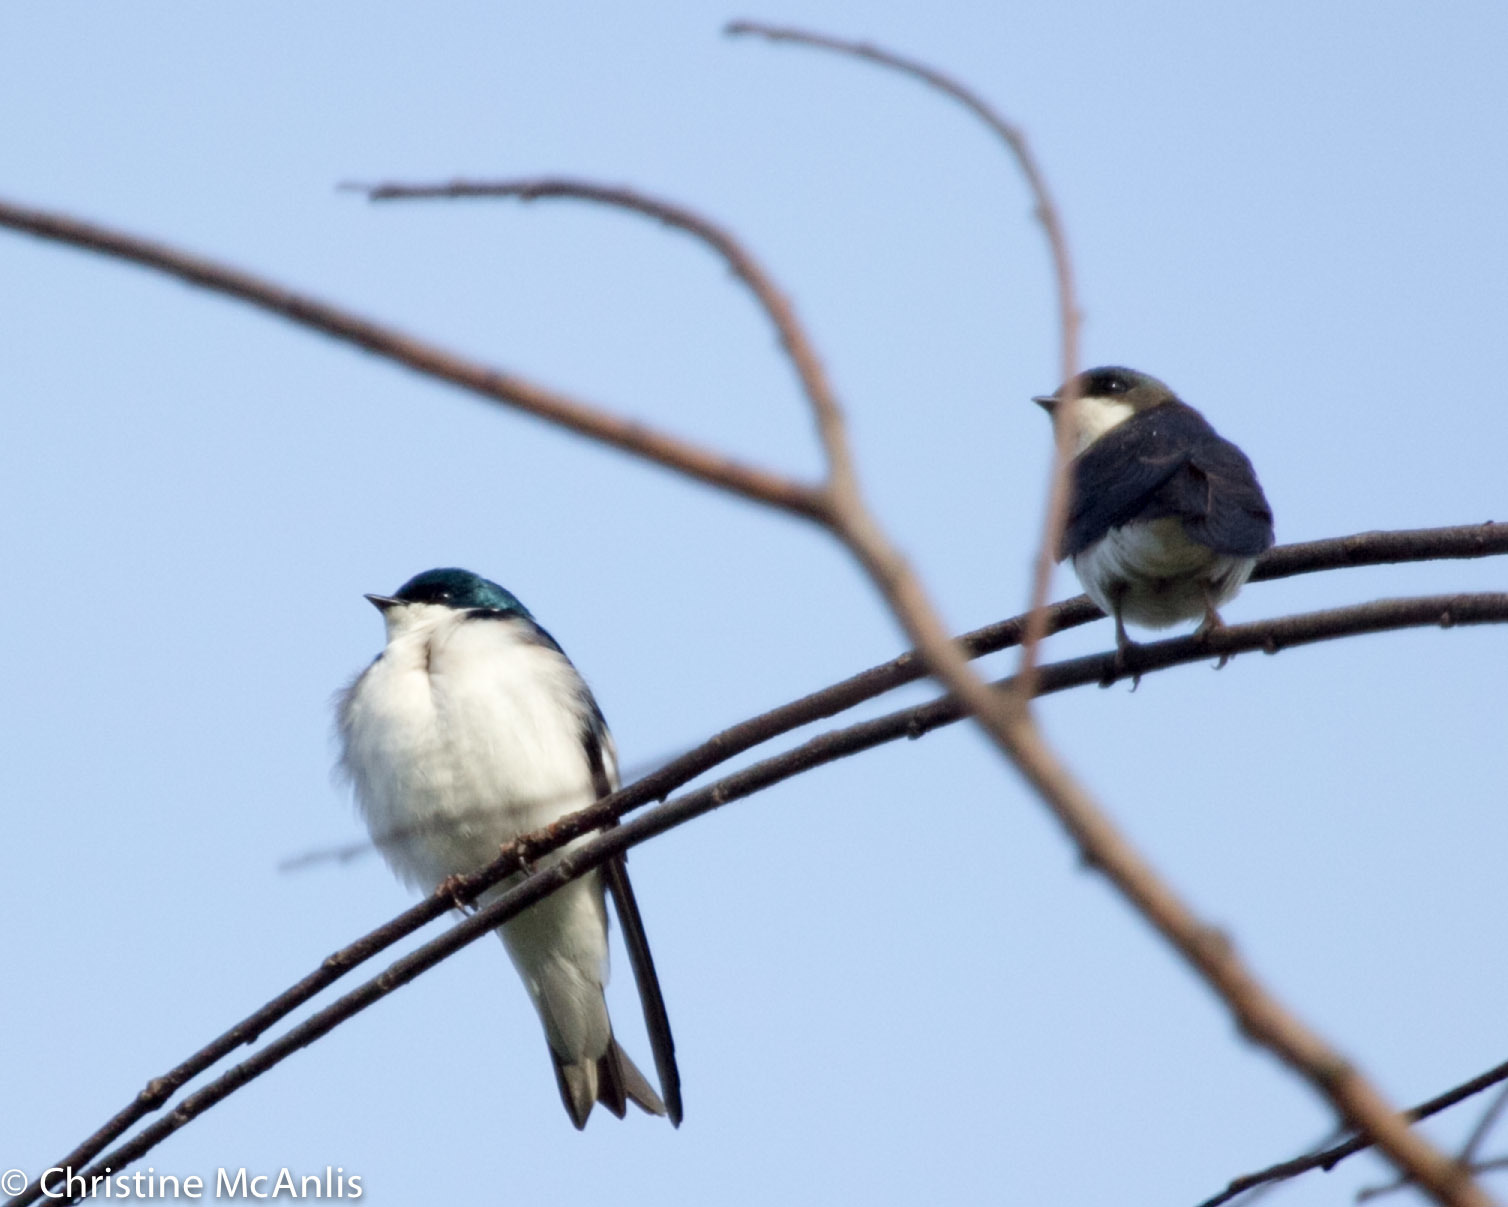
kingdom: Animalia
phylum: Chordata
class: Aves
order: Passeriformes
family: Hirundinidae
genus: Tachycineta
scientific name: Tachycineta bicolor
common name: Tree swallow
